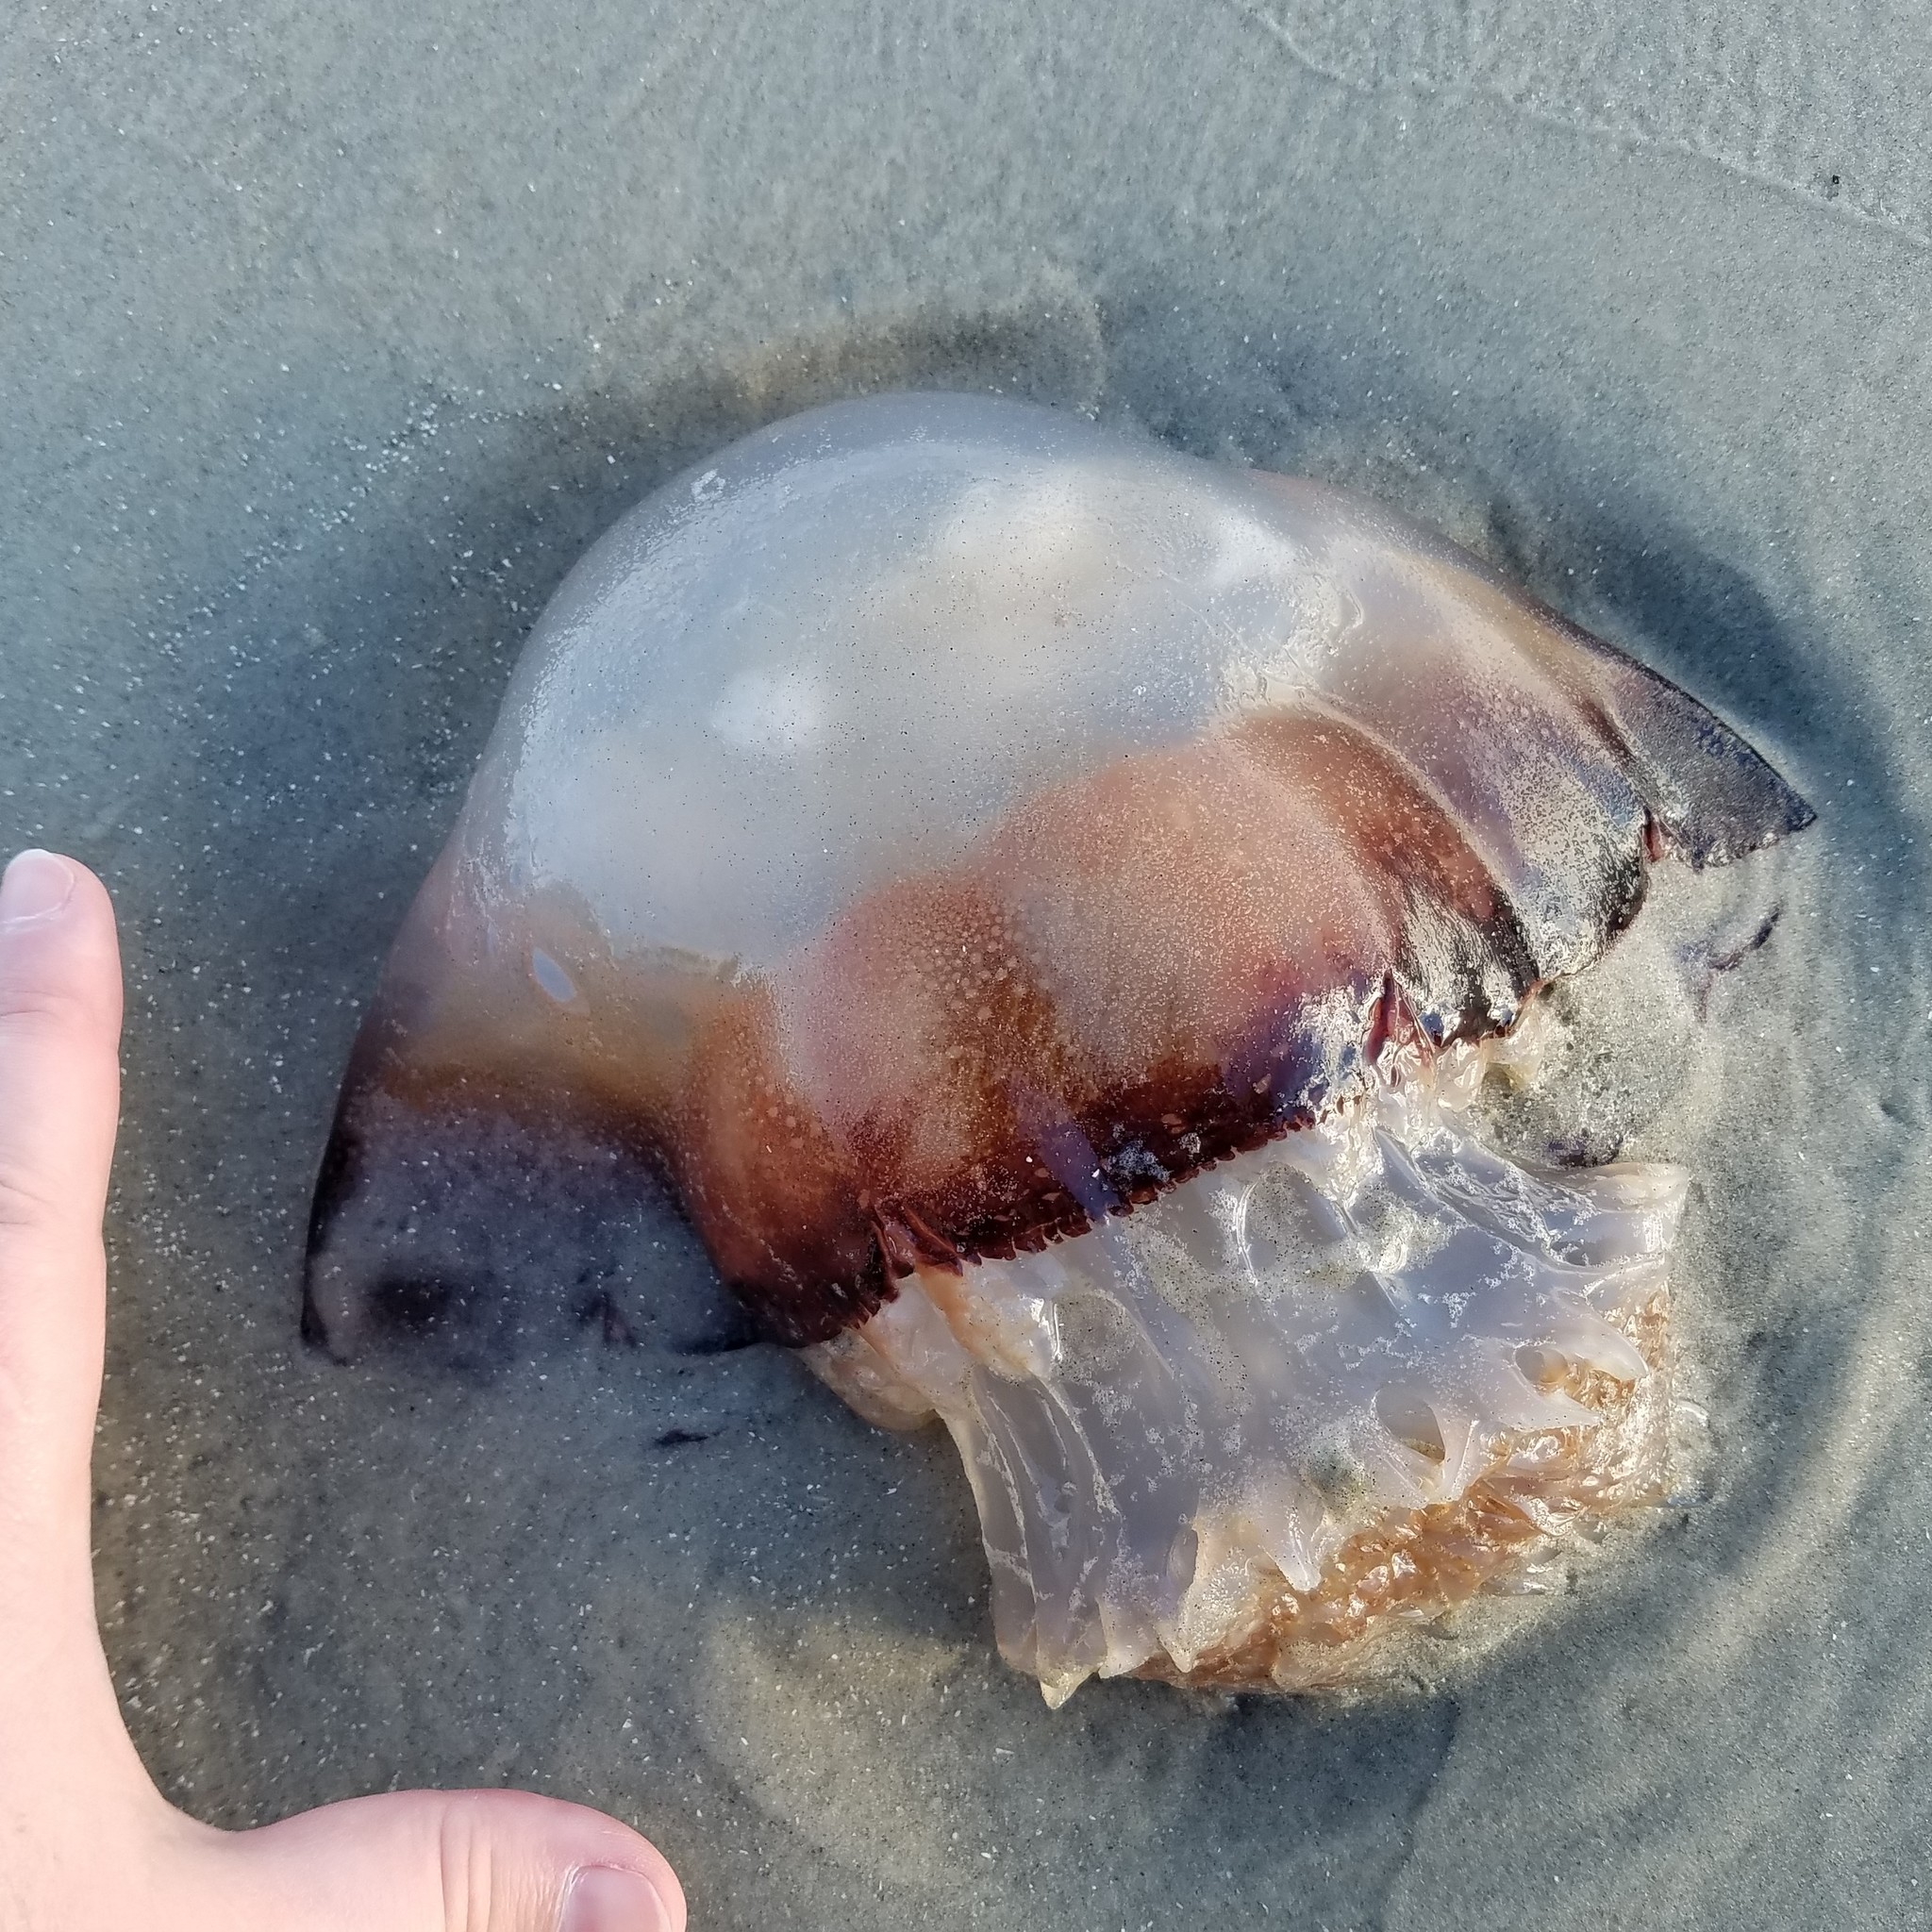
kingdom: Animalia
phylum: Cnidaria
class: Scyphozoa
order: Rhizostomeae
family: Stomolophidae
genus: Stomolophus
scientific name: Stomolophus meleagris
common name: Cabbagehead
